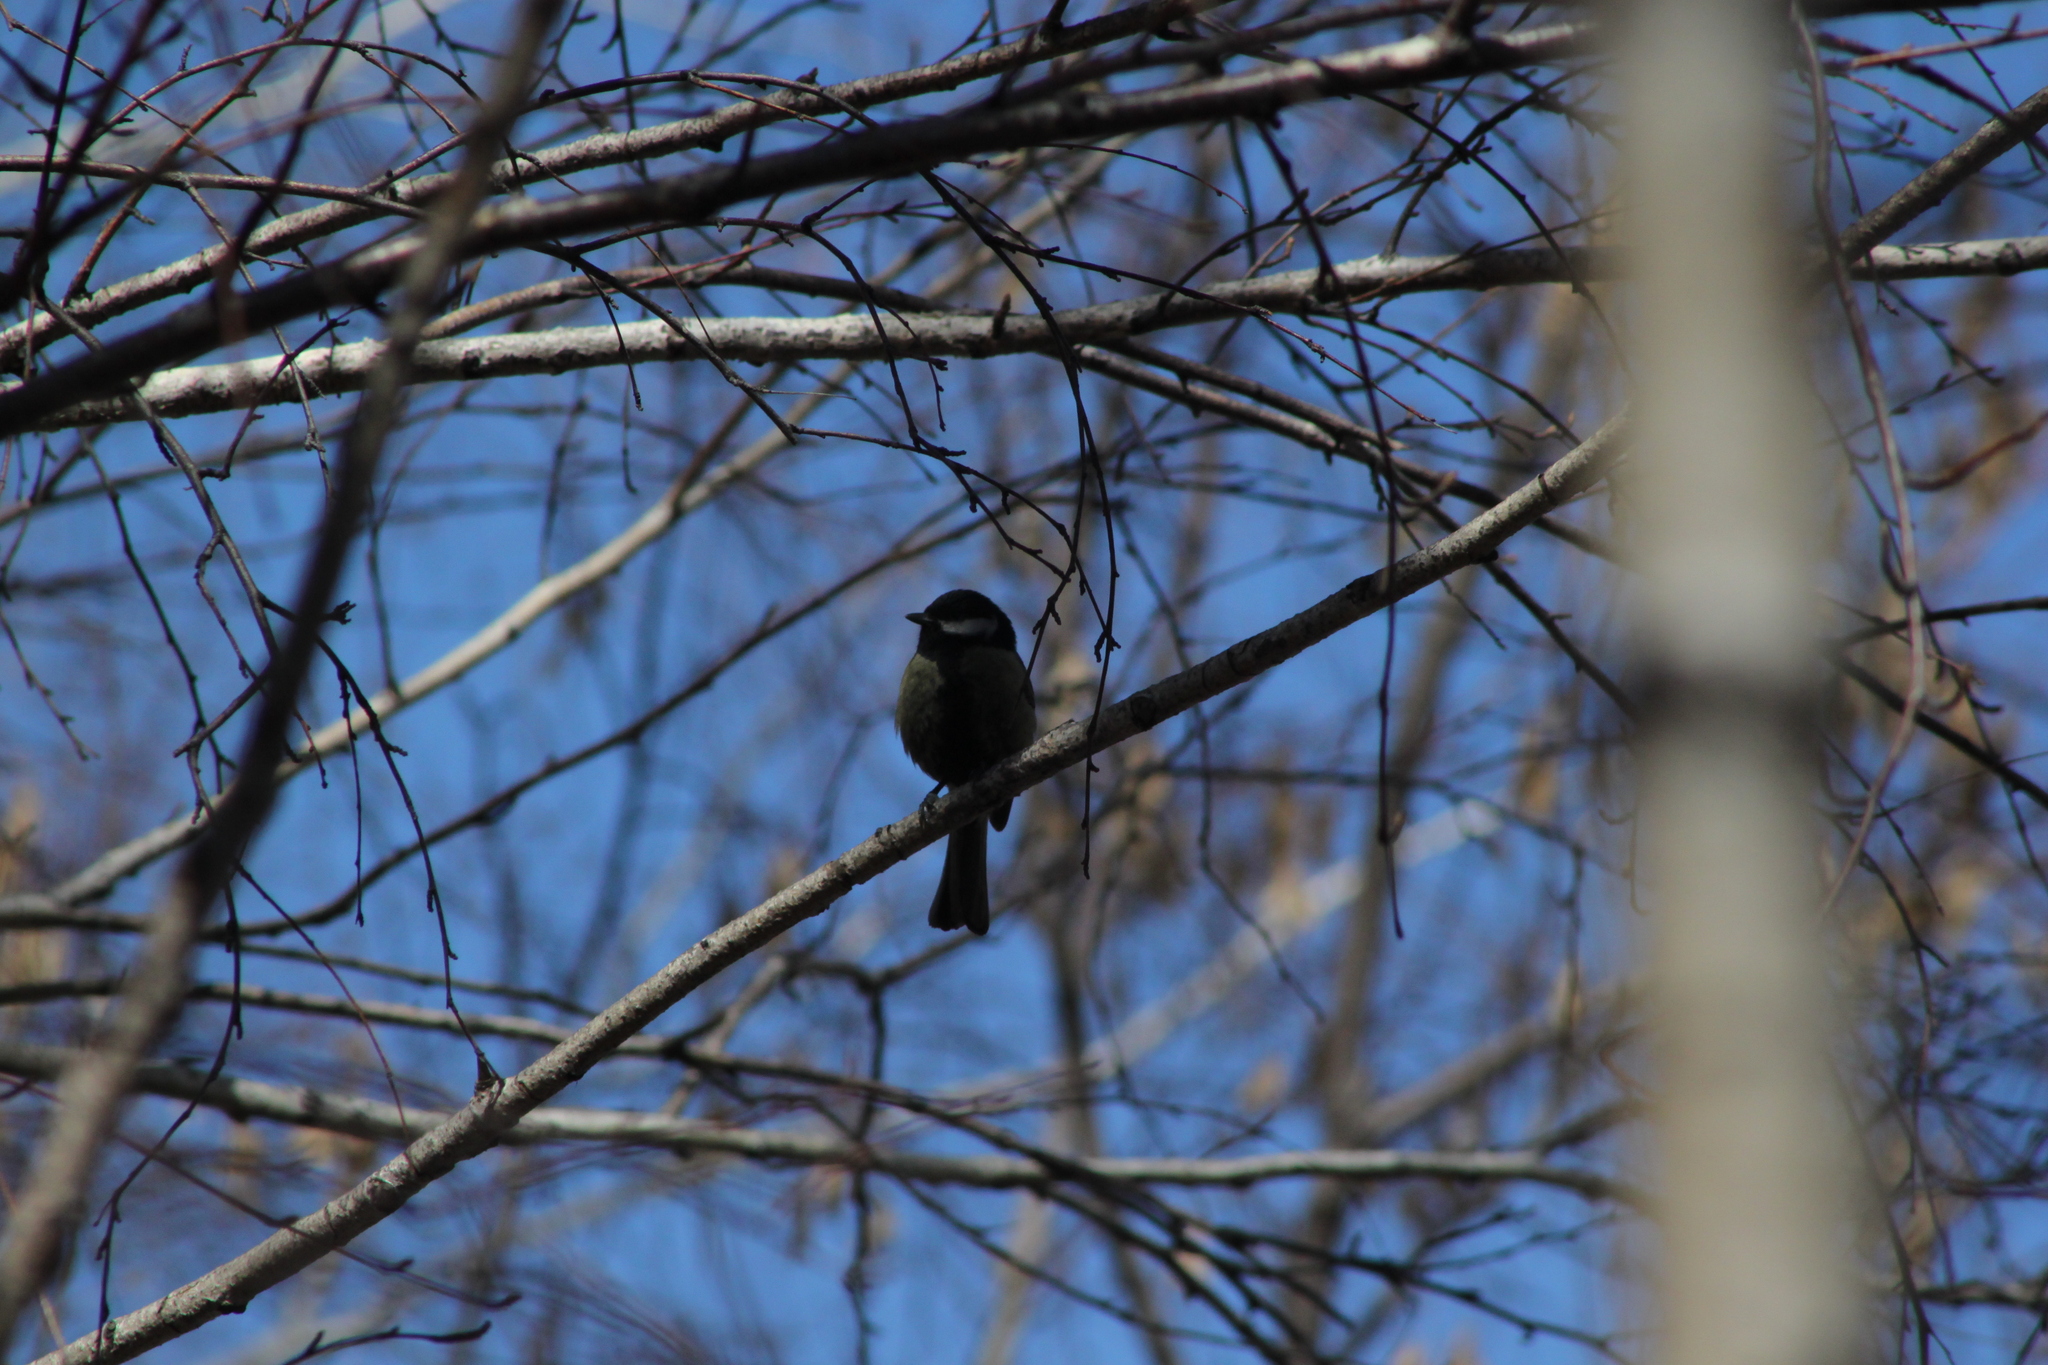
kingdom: Animalia
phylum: Chordata
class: Aves
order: Passeriformes
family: Paridae
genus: Parus
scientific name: Parus major
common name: Great tit
